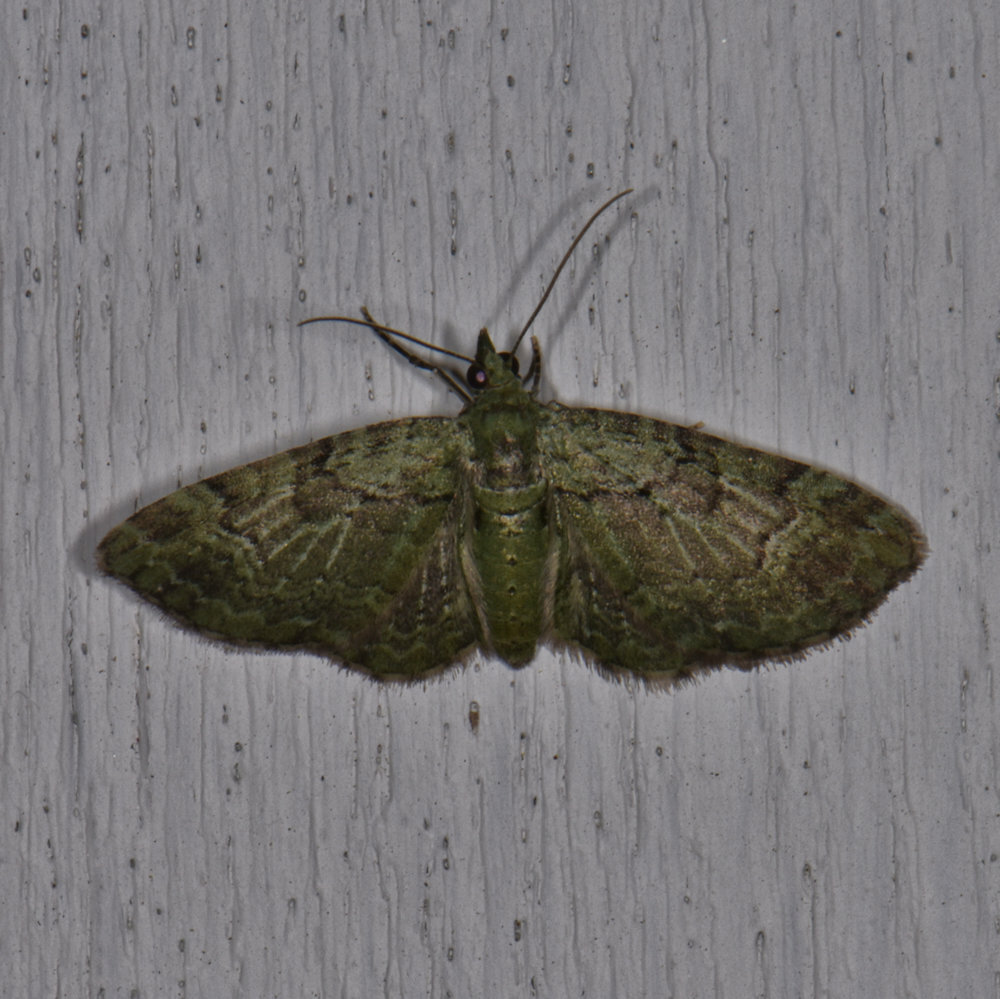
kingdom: Animalia
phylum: Arthropoda
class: Insecta
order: Lepidoptera
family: Geometridae
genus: Pasiphila
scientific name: Pasiphila rectangulata
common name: Green pug
